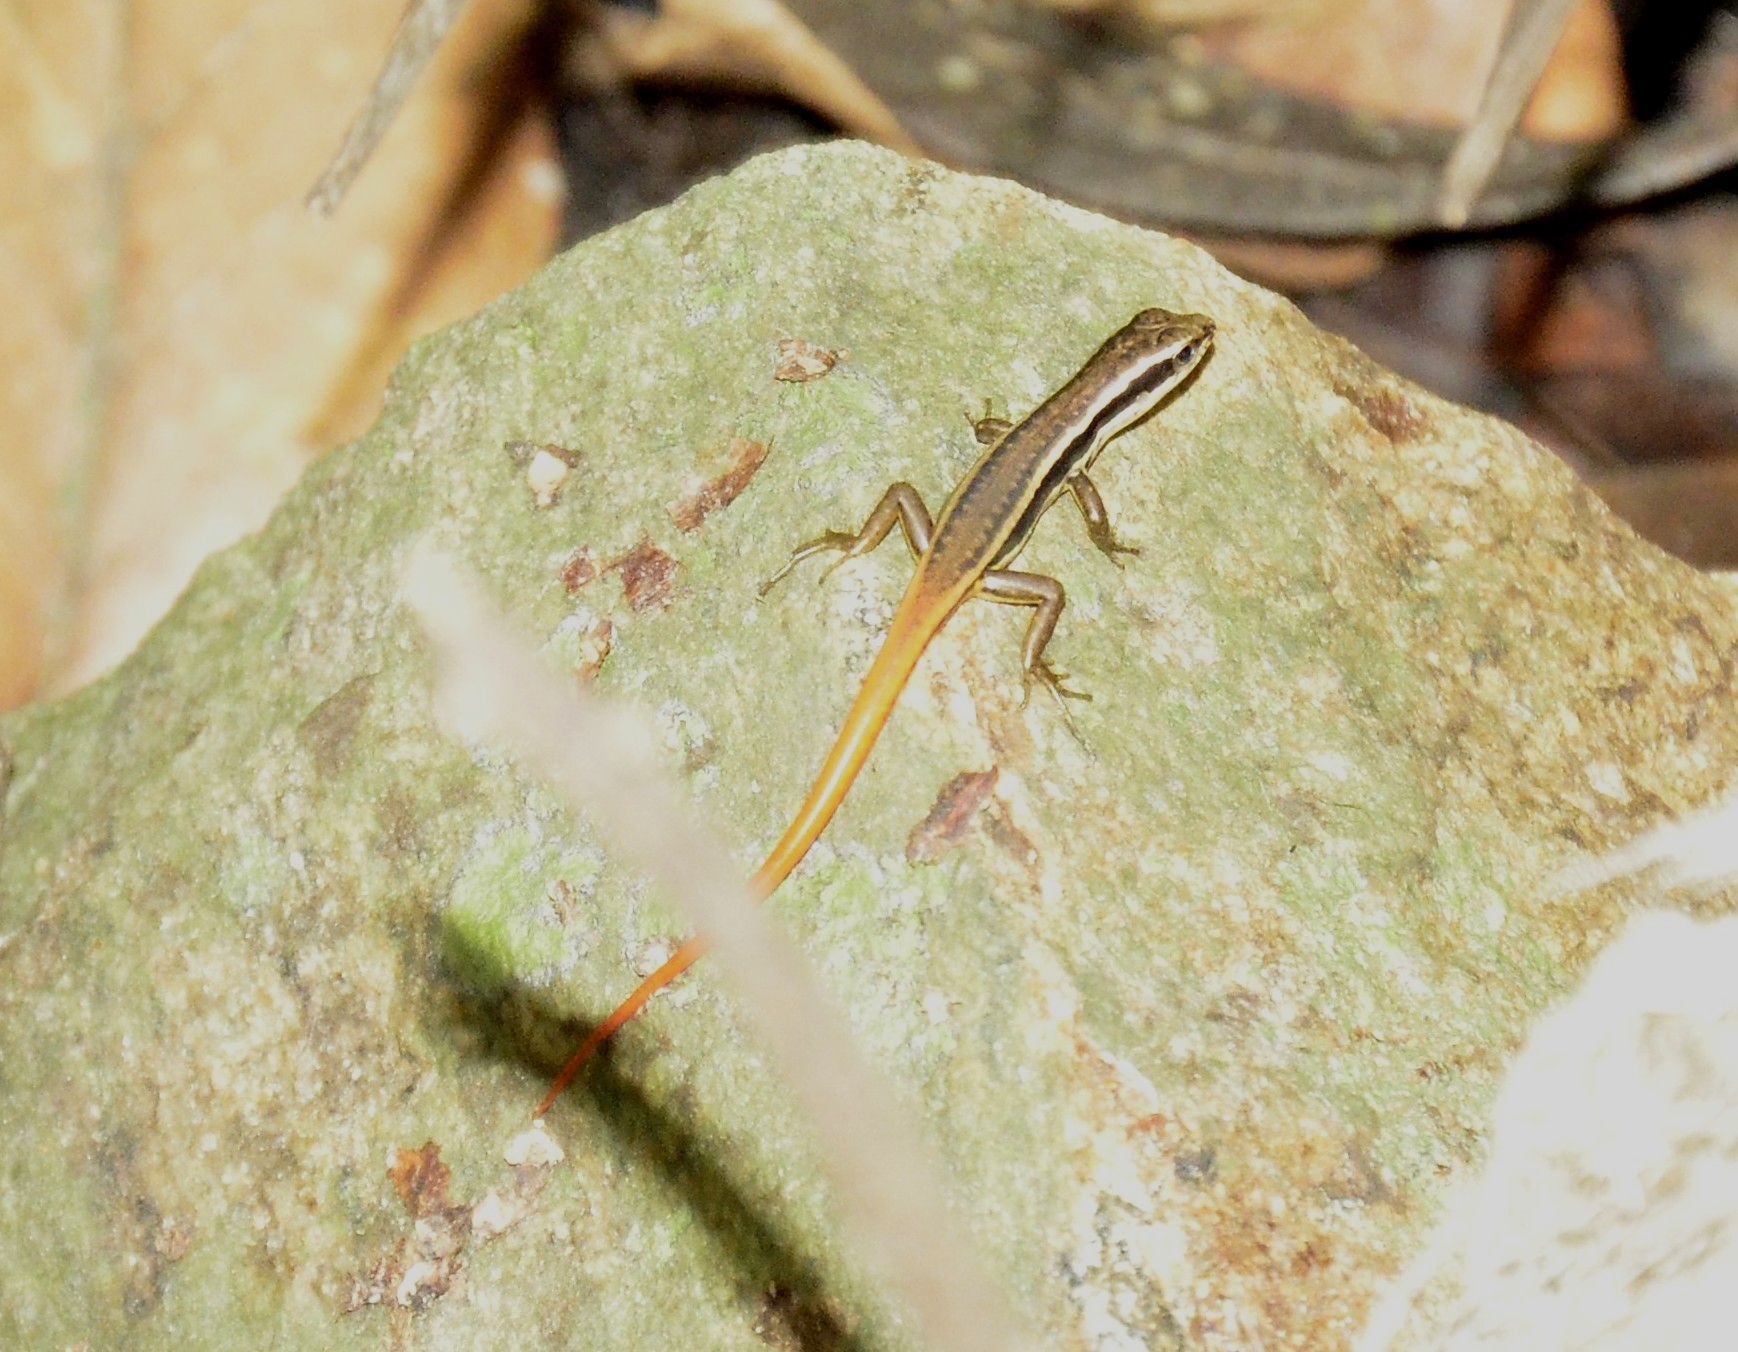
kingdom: Animalia
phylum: Chordata
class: Squamata
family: Scincidae
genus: Sphenomorphus
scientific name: Sphenomorphus dussumieri
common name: Dussumier's forest skink
